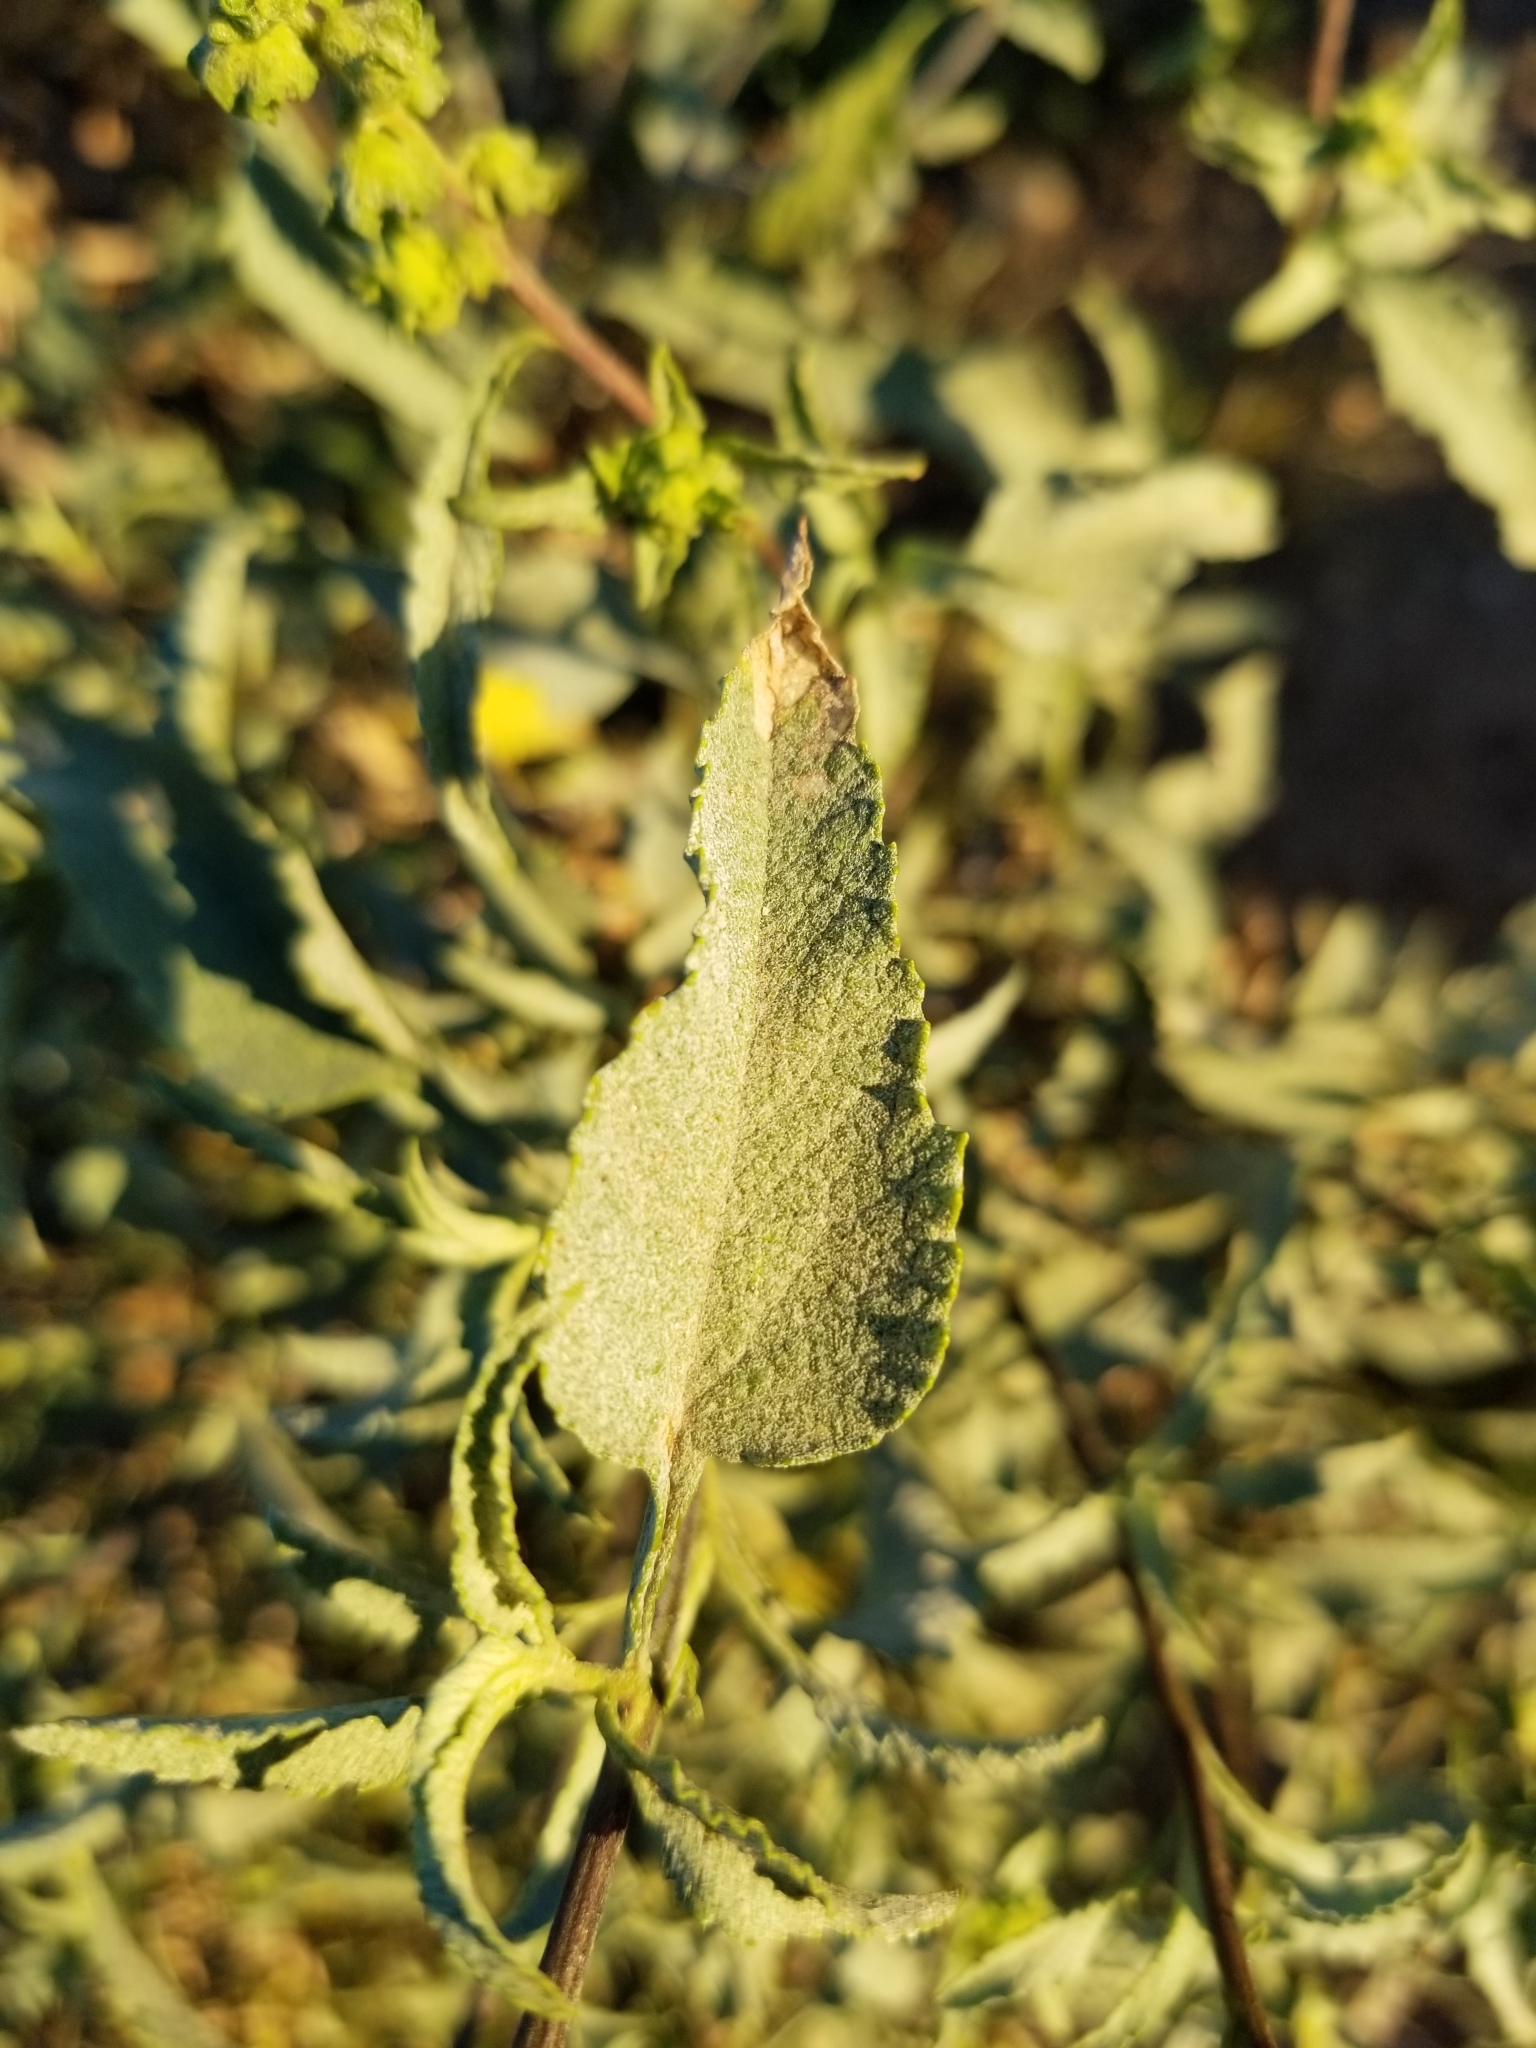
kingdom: Plantae
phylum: Tracheophyta
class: Magnoliopsida
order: Asterales
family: Asteraceae
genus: Ambrosia
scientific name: Ambrosia deltoidea
